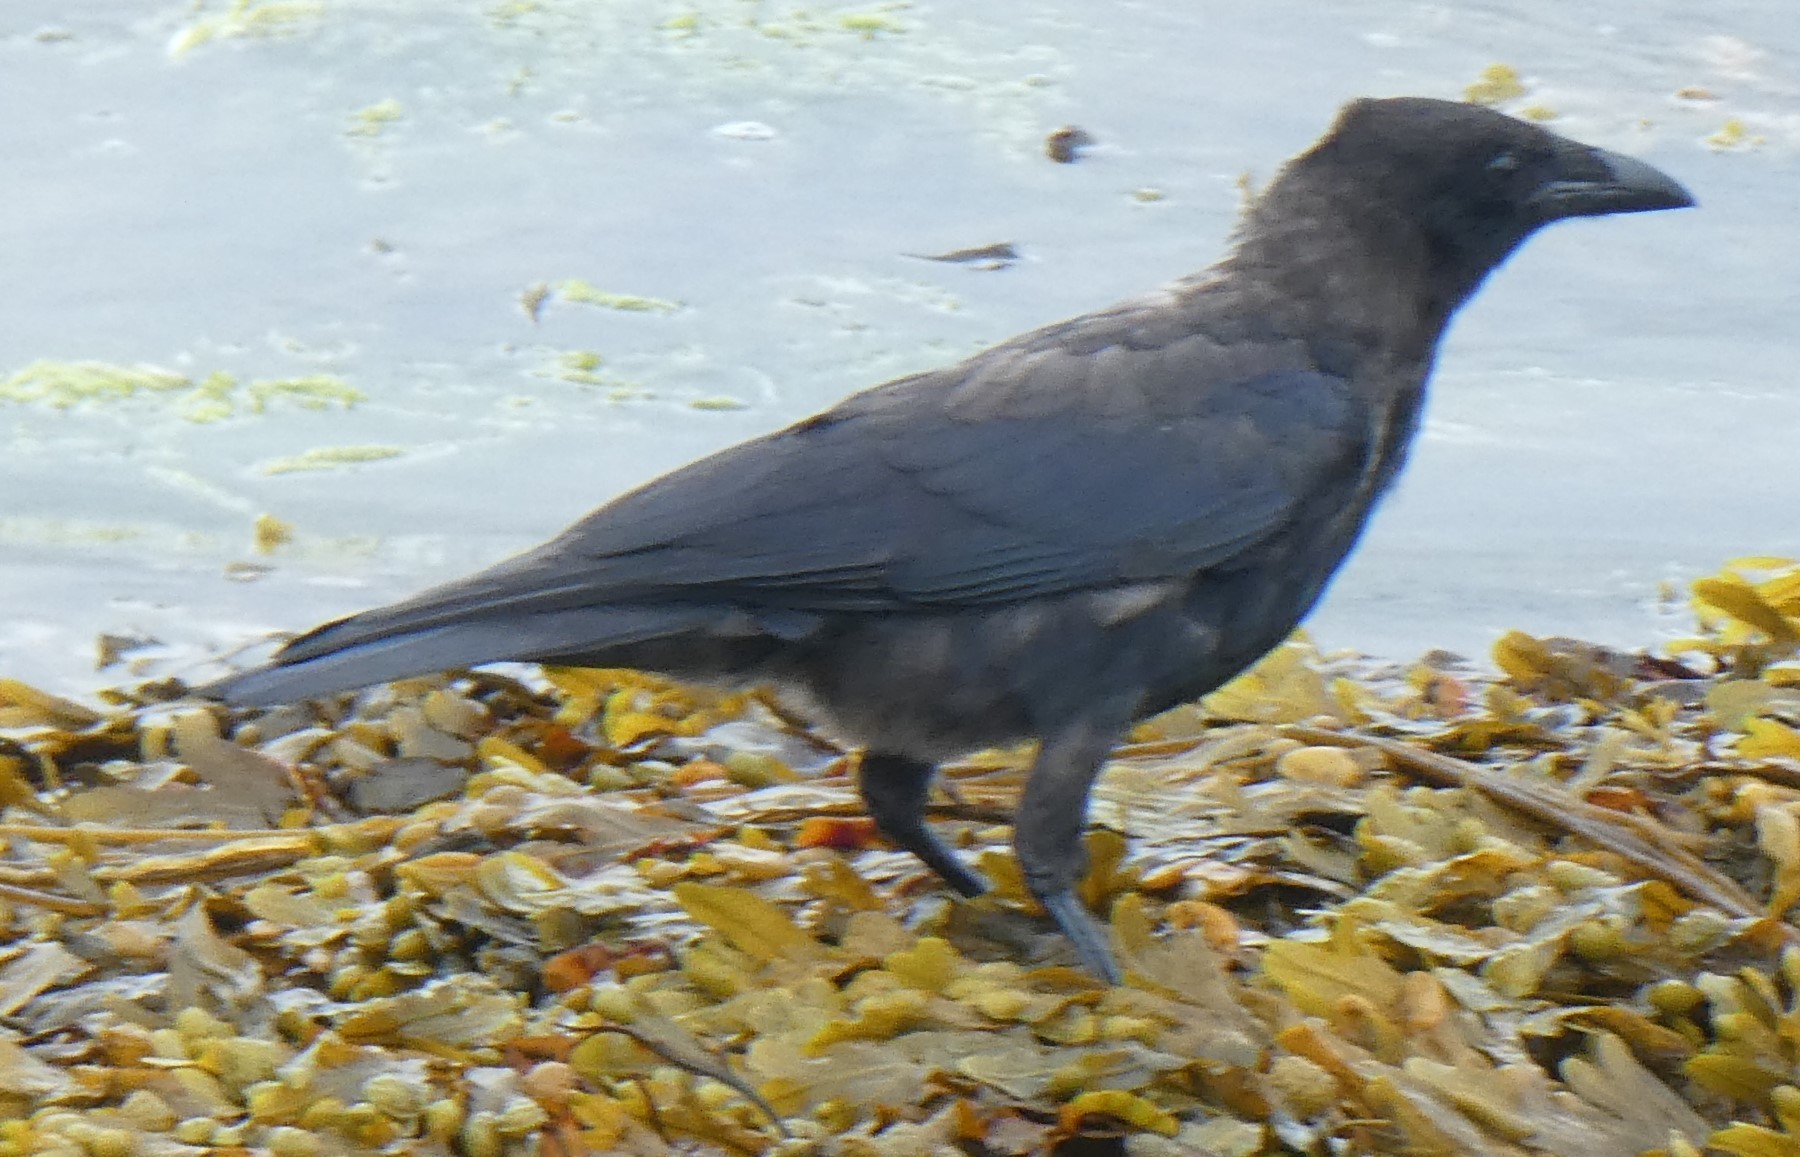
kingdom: Animalia
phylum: Chordata
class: Aves
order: Passeriformes
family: Corvidae
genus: Corvus
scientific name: Corvus corone
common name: Carrion crow
